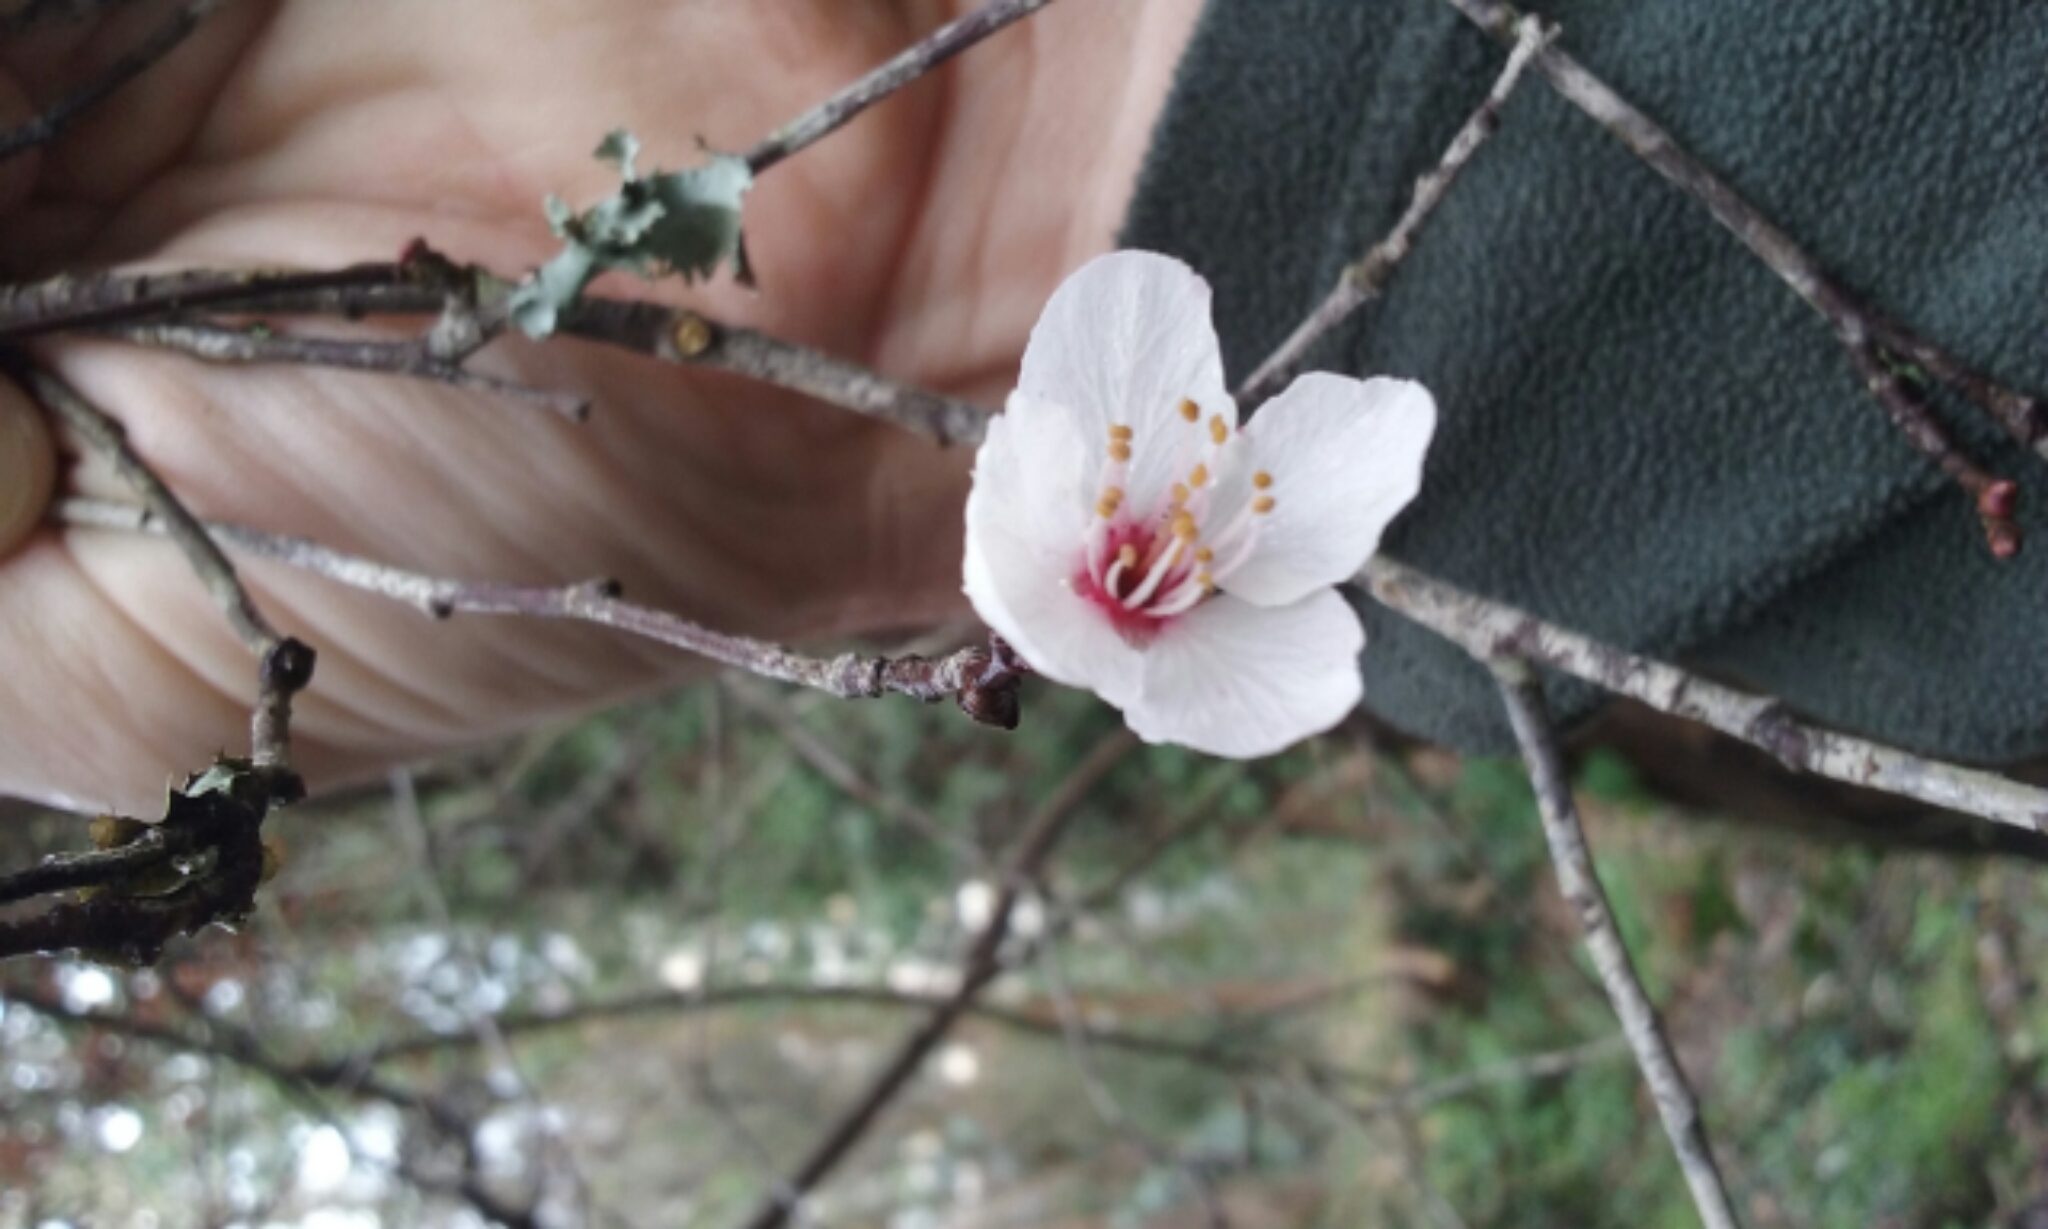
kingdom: Plantae
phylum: Tracheophyta
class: Magnoliopsida
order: Rosales
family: Rosaceae
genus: Prunus
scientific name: Prunus cerasifera
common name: Cherry plum
